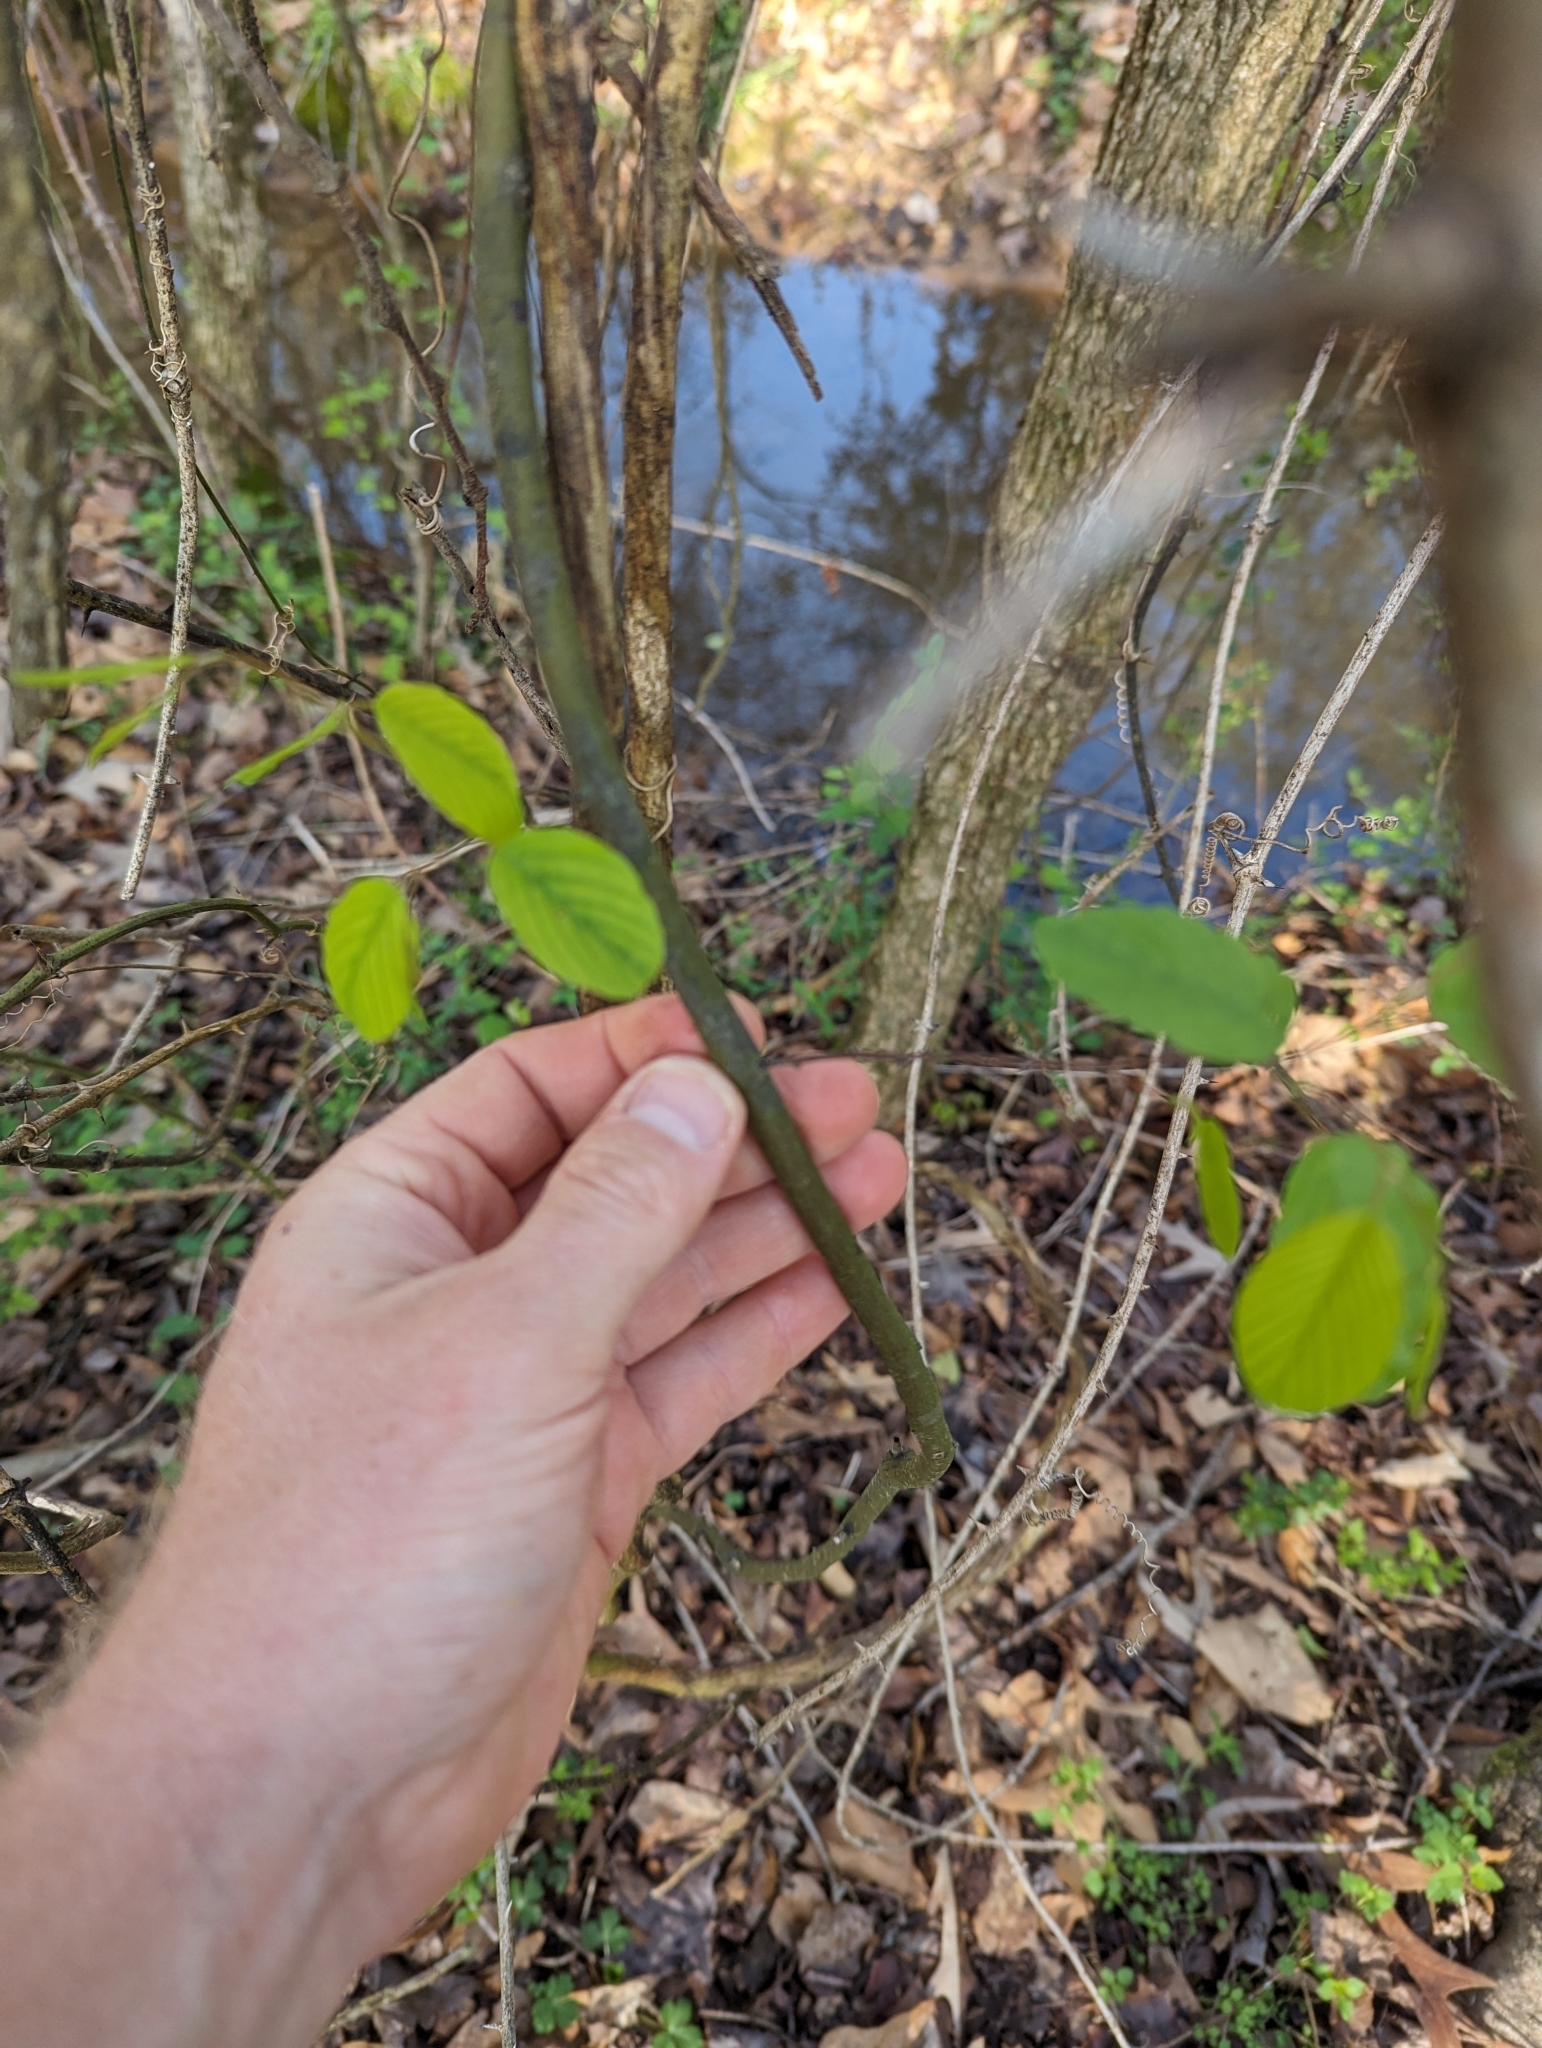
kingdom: Plantae
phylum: Tracheophyta
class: Magnoliopsida
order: Rosales
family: Rhamnaceae
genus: Berchemia
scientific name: Berchemia scandens
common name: Supplejack
